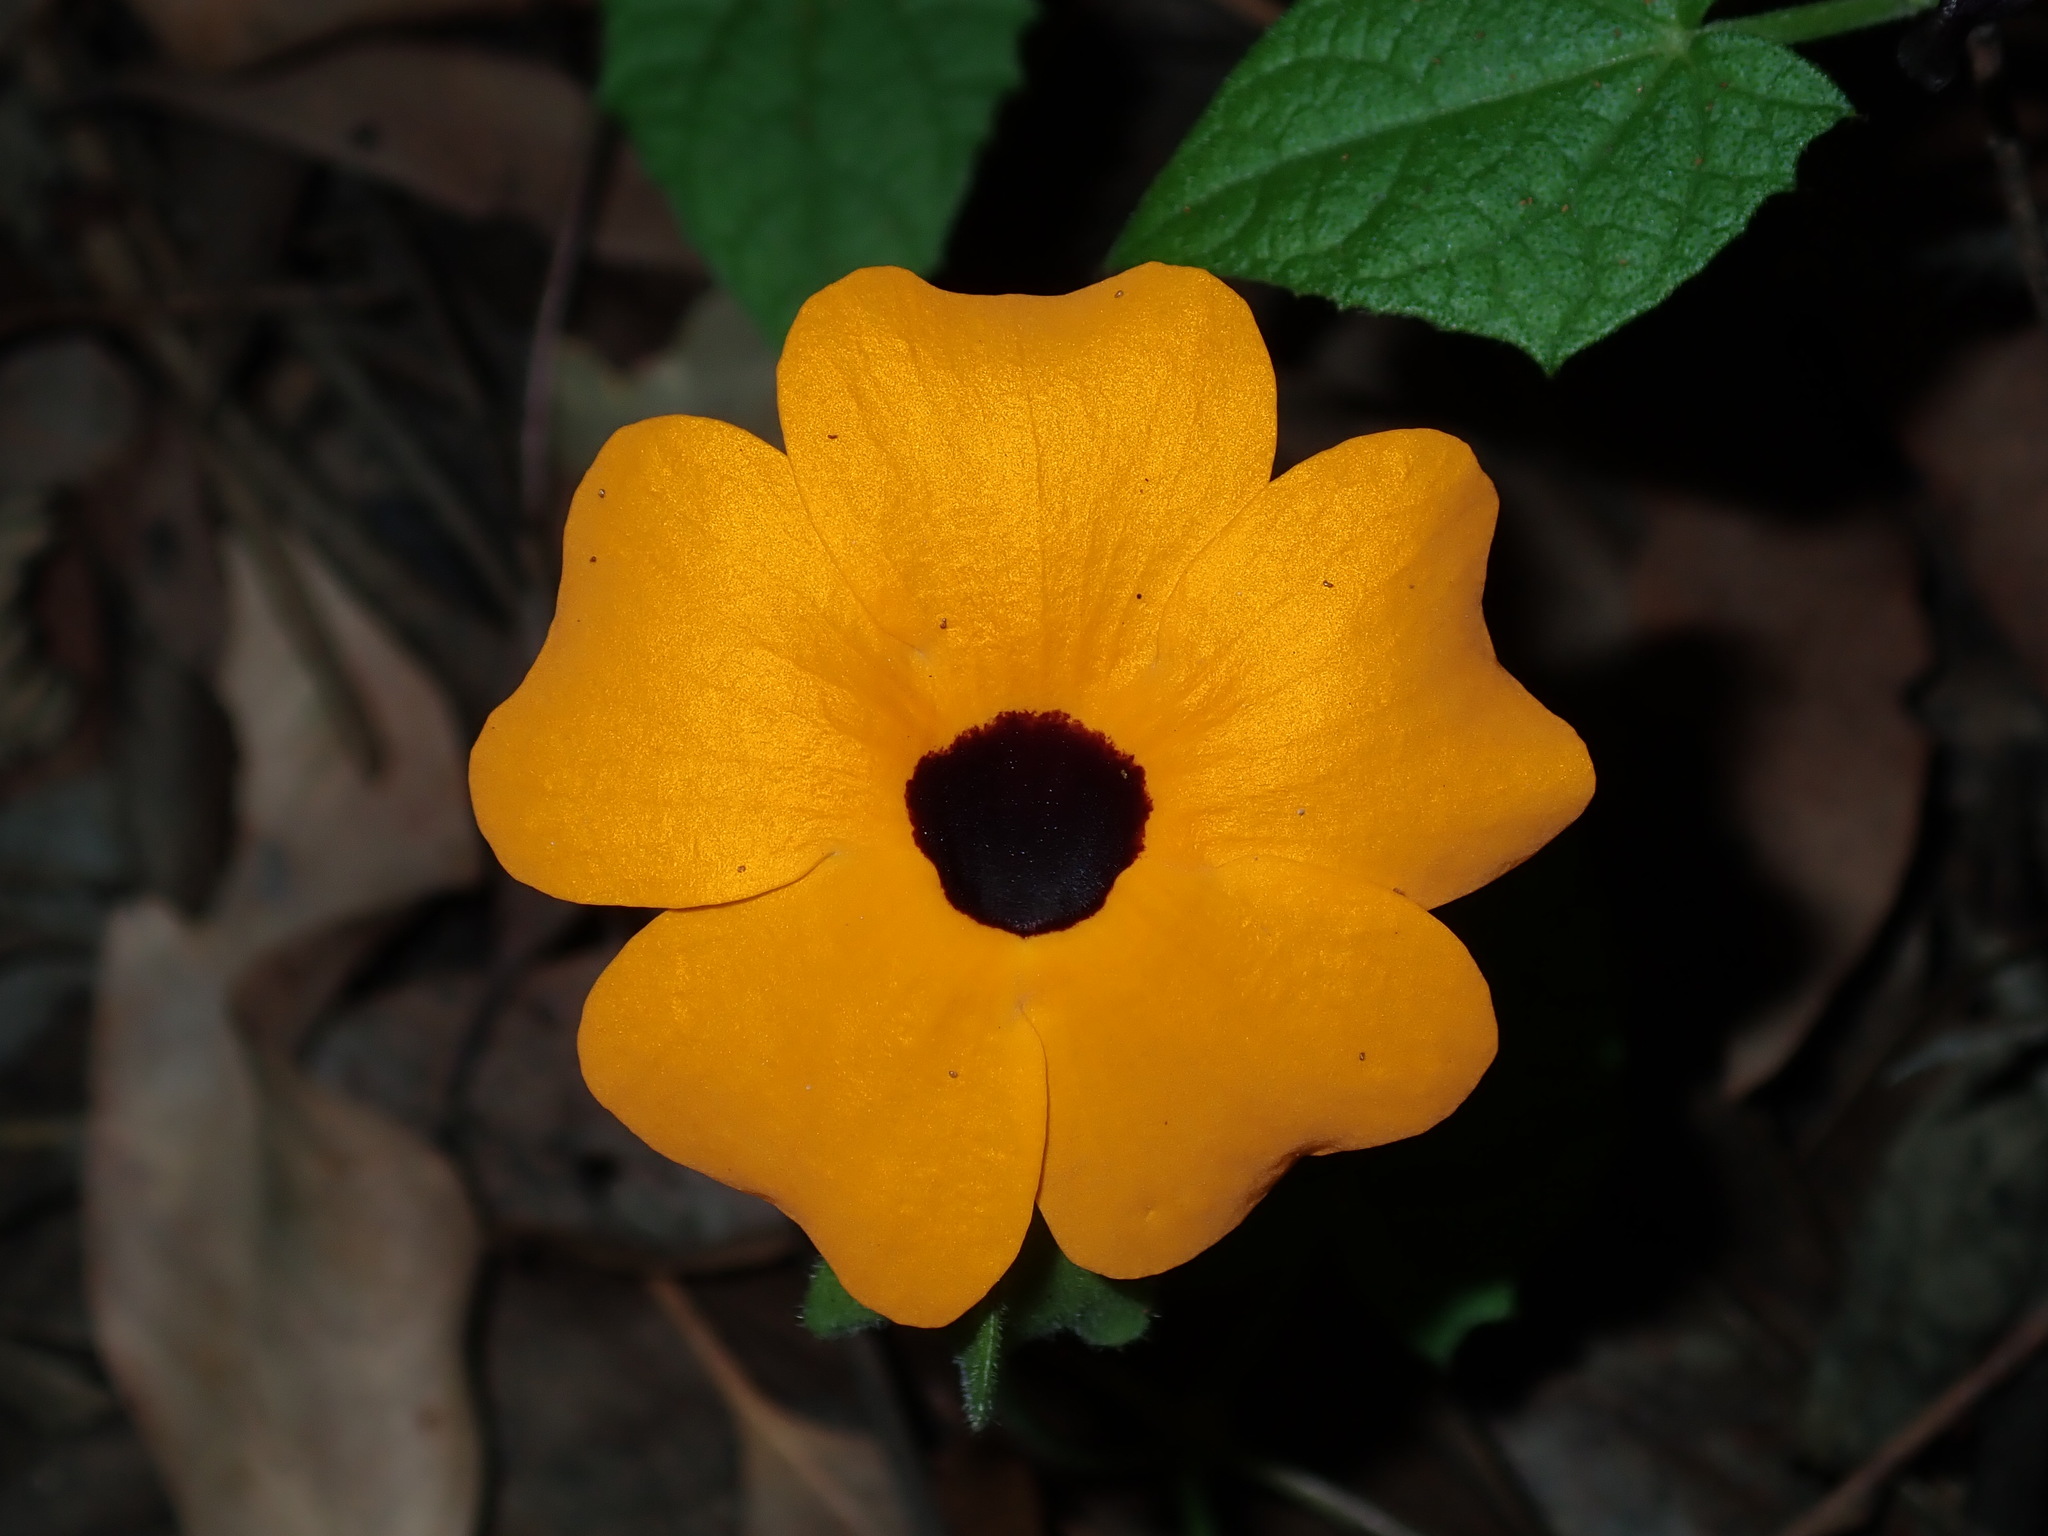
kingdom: Plantae
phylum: Tracheophyta
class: Magnoliopsida
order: Lamiales
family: Acanthaceae
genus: Thunbergia
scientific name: Thunbergia alata
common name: Blackeyed susan vine
